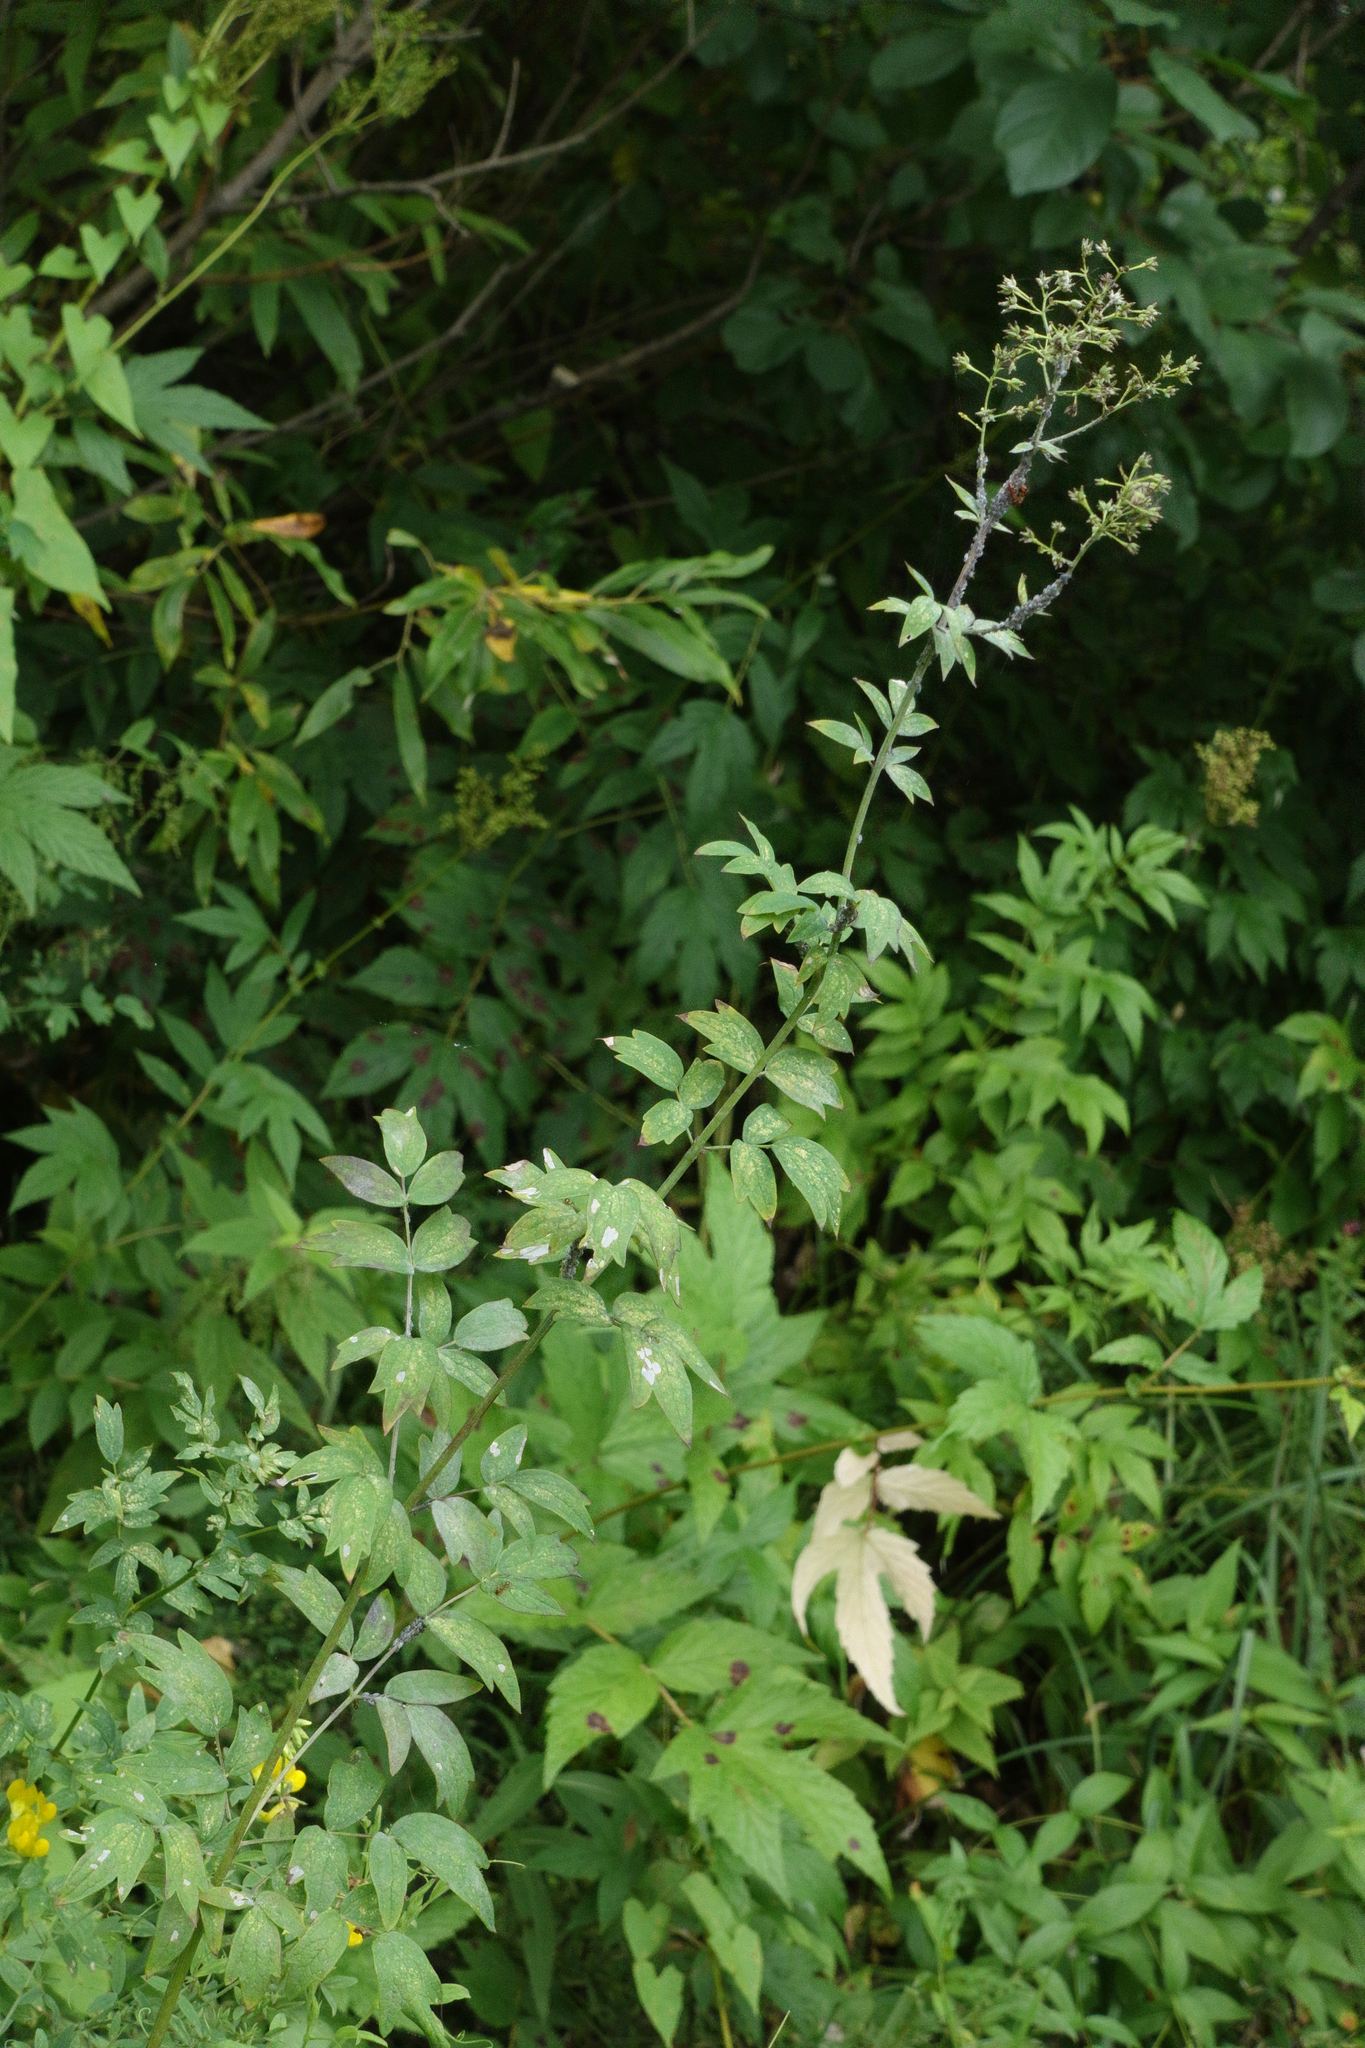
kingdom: Plantae
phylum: Tracheophyta
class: Magnoliopsida
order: Ranunculales
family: Ranunculaceae
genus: Thalictrum
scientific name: Thalictrum minus
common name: Lesser meadow-rue
